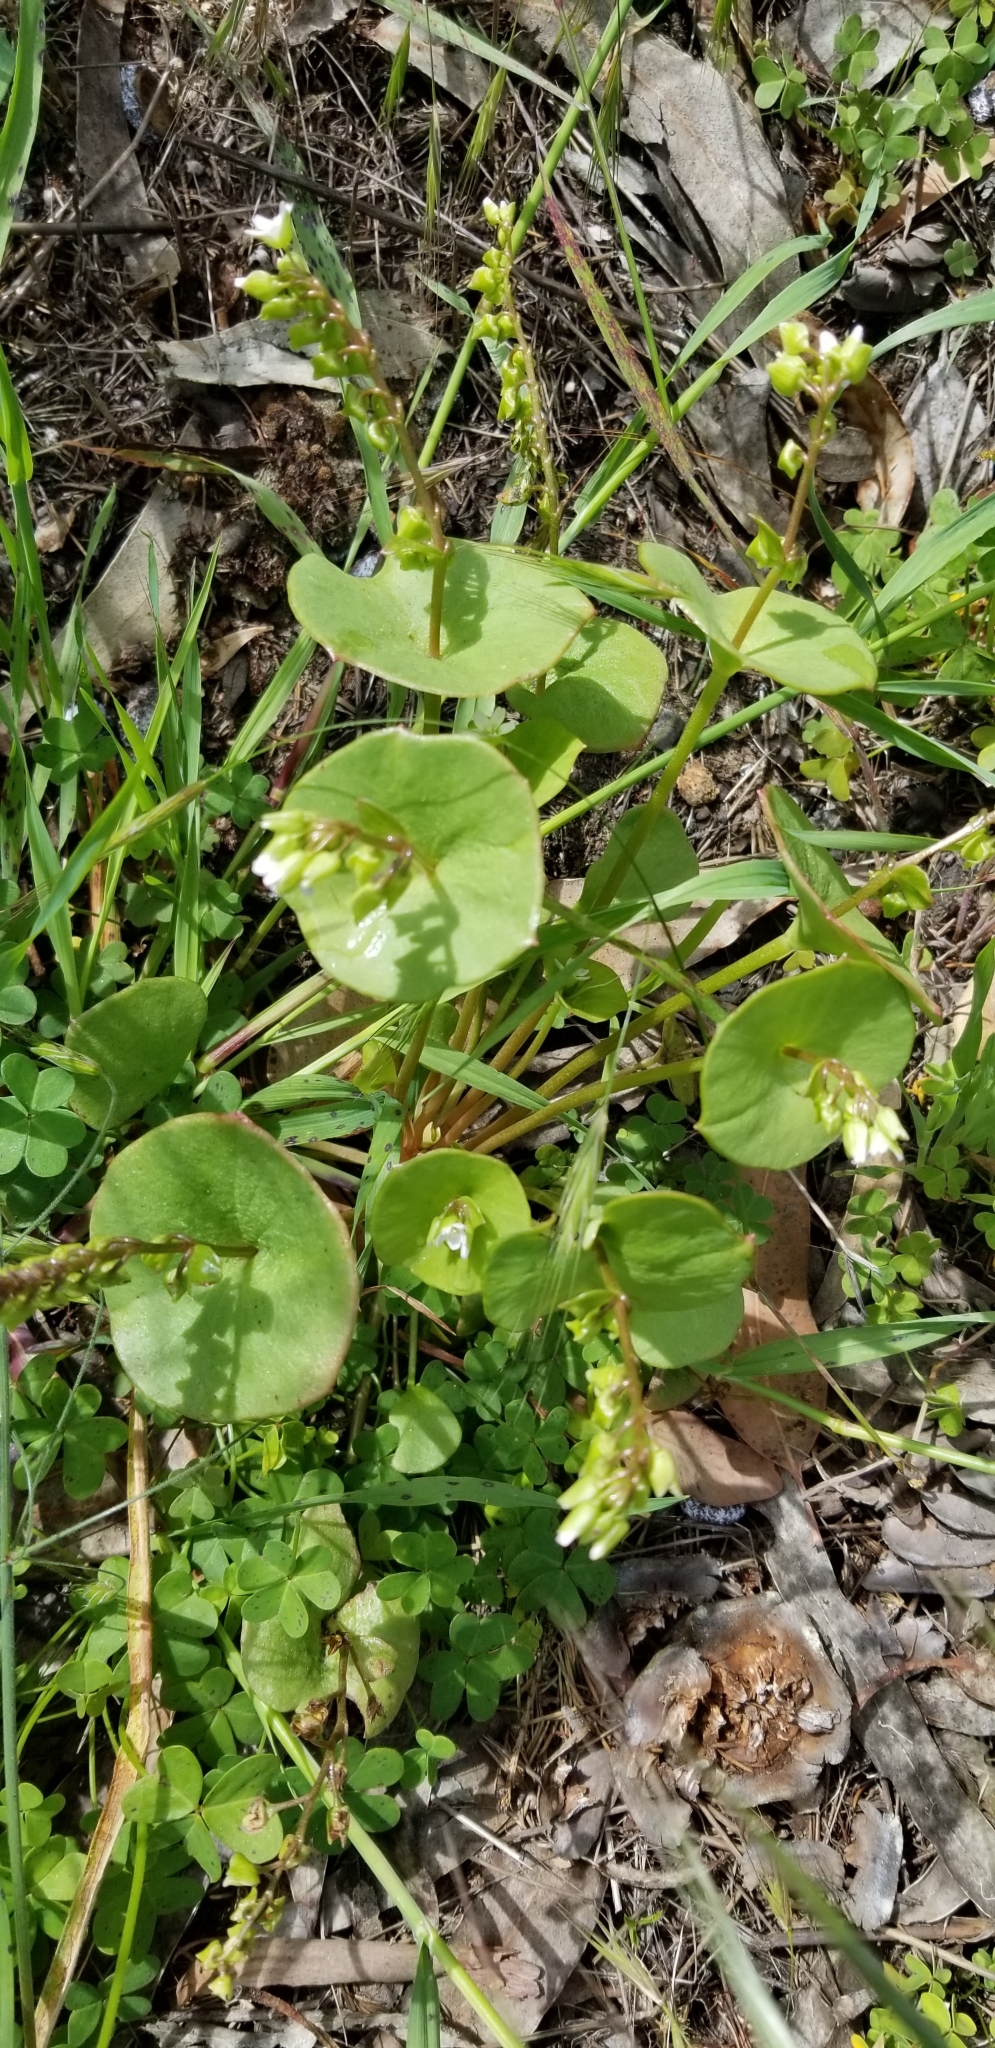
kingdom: Plantae
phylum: Tracheophyta
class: Magnoliopsida
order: Caryophyllales
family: Montiaceae
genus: Claytonia
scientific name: Claytonia perfoliata
